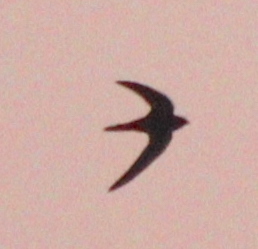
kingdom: Animalia
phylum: Chordata
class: Aves
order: Apodiformes
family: Apodidae
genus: Apus
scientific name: Apus apus
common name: Common swift
